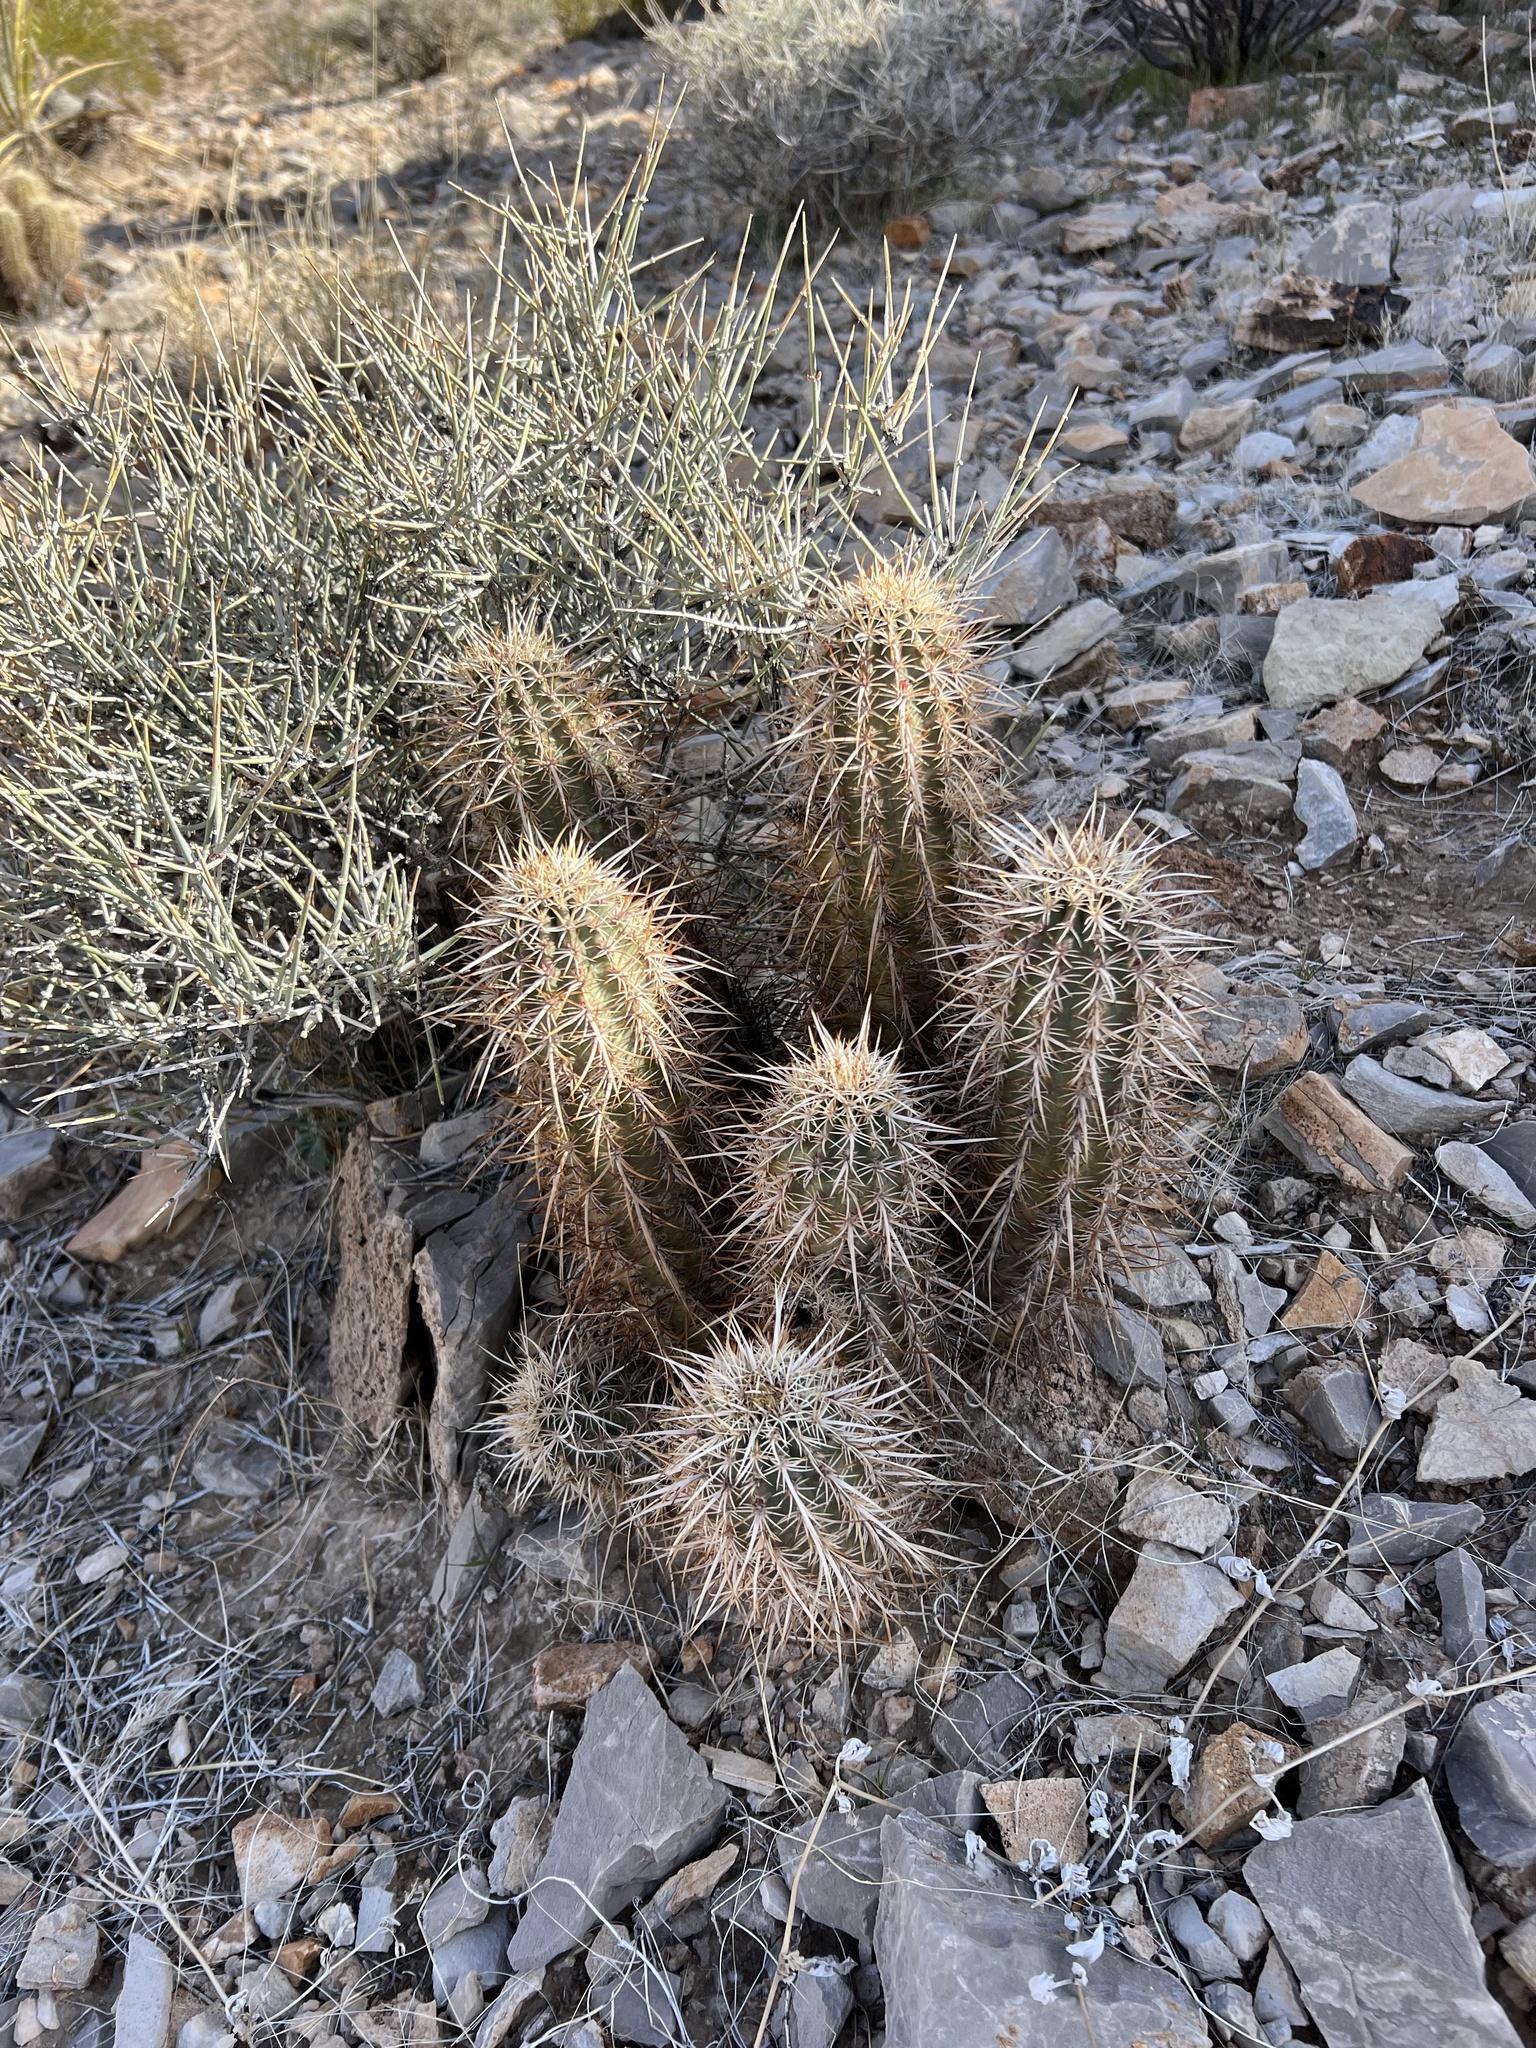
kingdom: Plantae
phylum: Tracheophyta
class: Magnoliopsida
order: Caryophyllales
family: Cactaceae
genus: Echinocereus
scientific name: Echinocereus engelmannii
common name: Engelmann's hedgehog cactus
